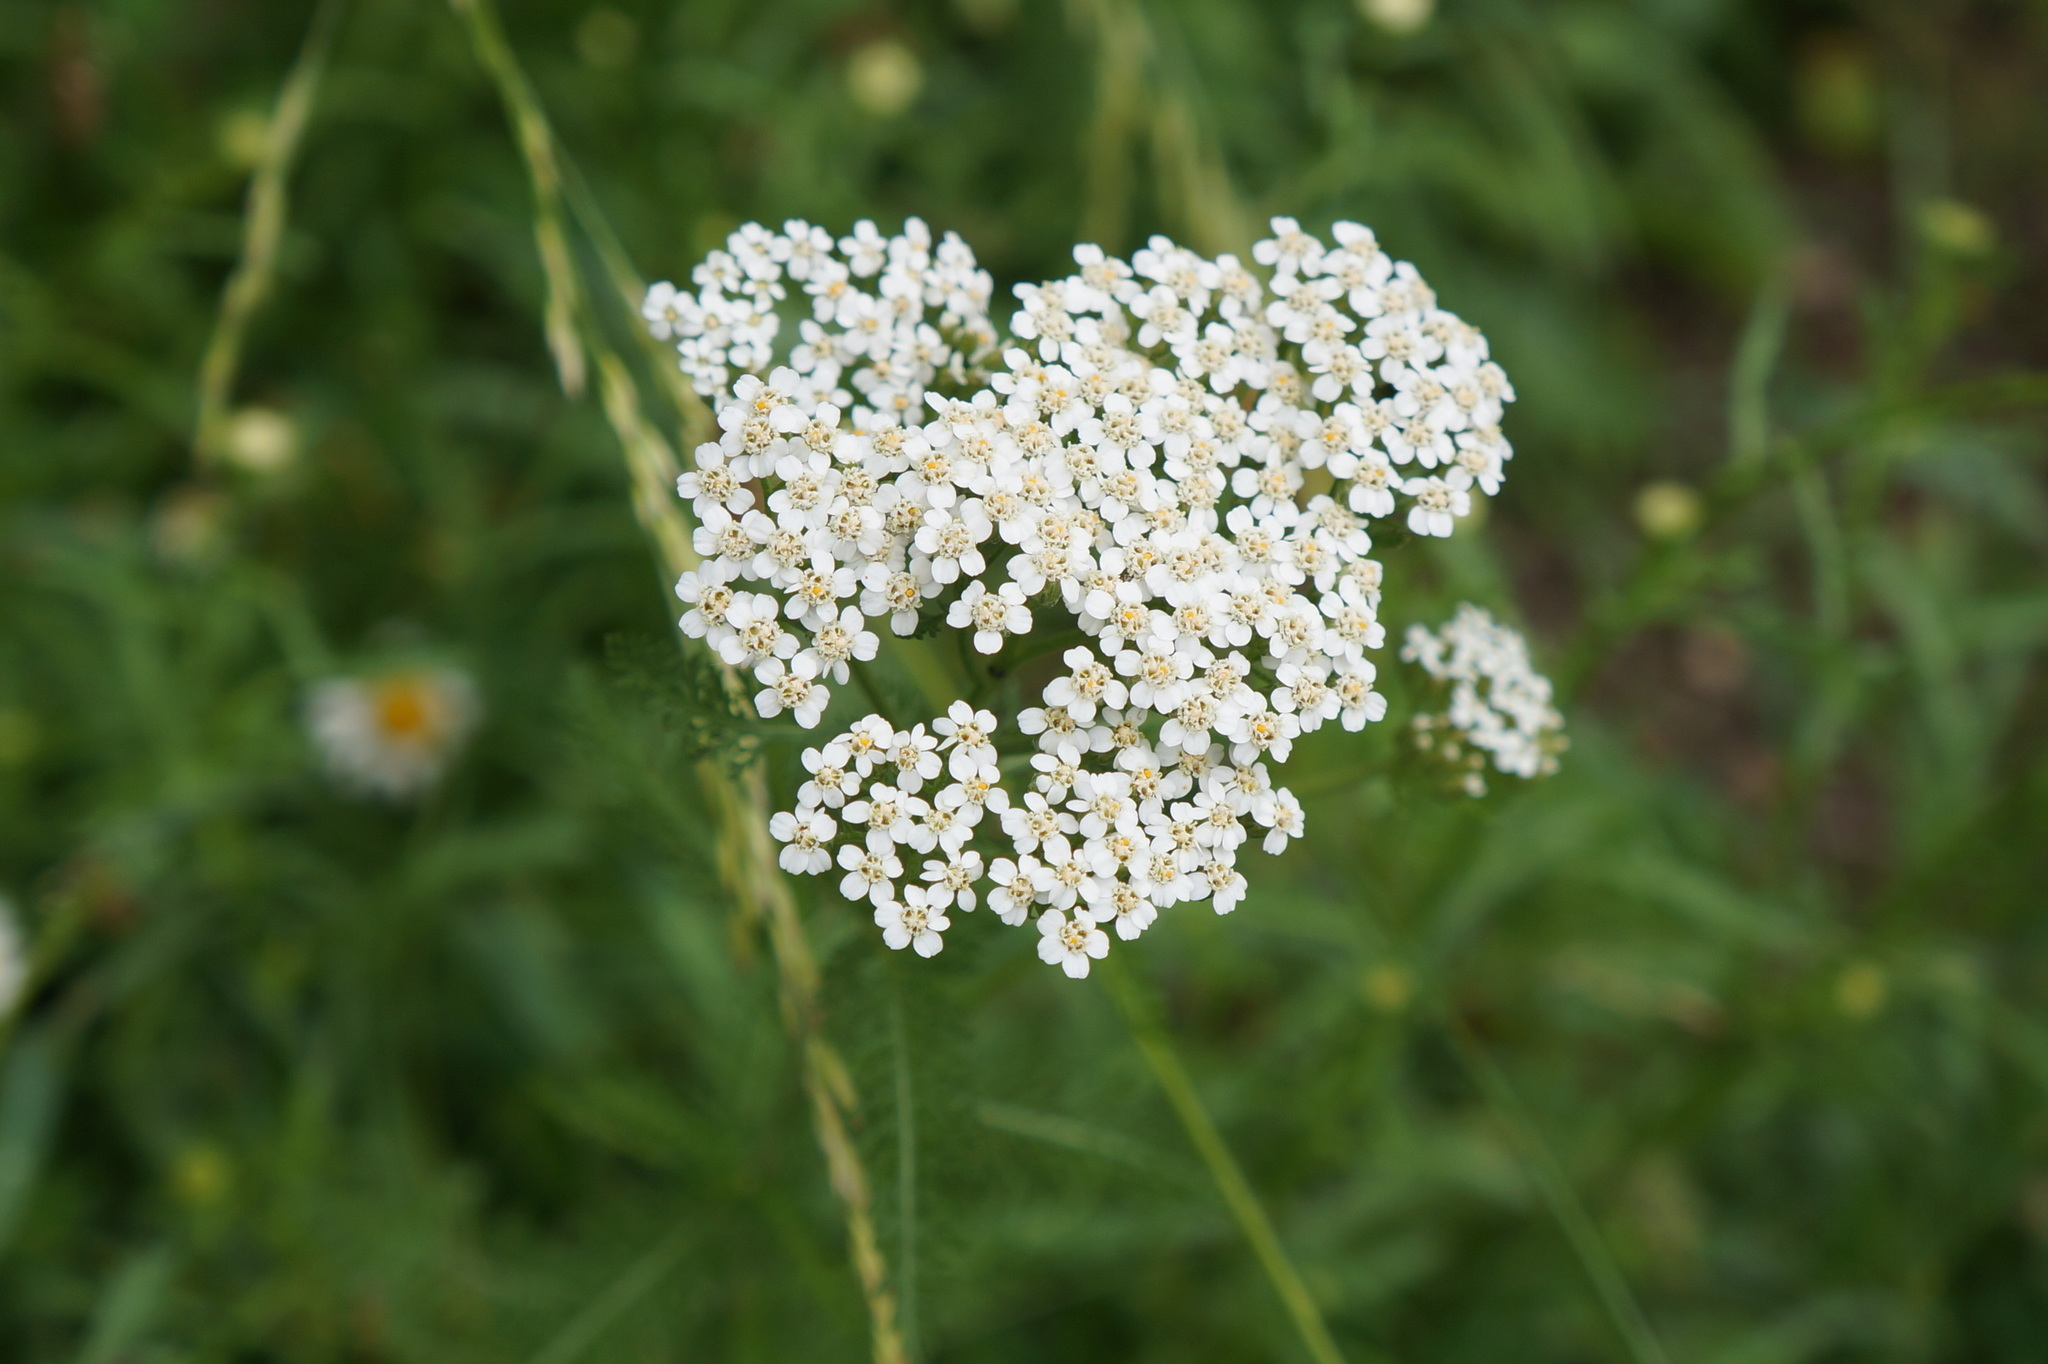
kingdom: Plantae
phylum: Tracheophyta
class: Magnoliopsida
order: Asterales
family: Asteraceae
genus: Achillea
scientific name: Achillea millefolium
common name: Yarrow
